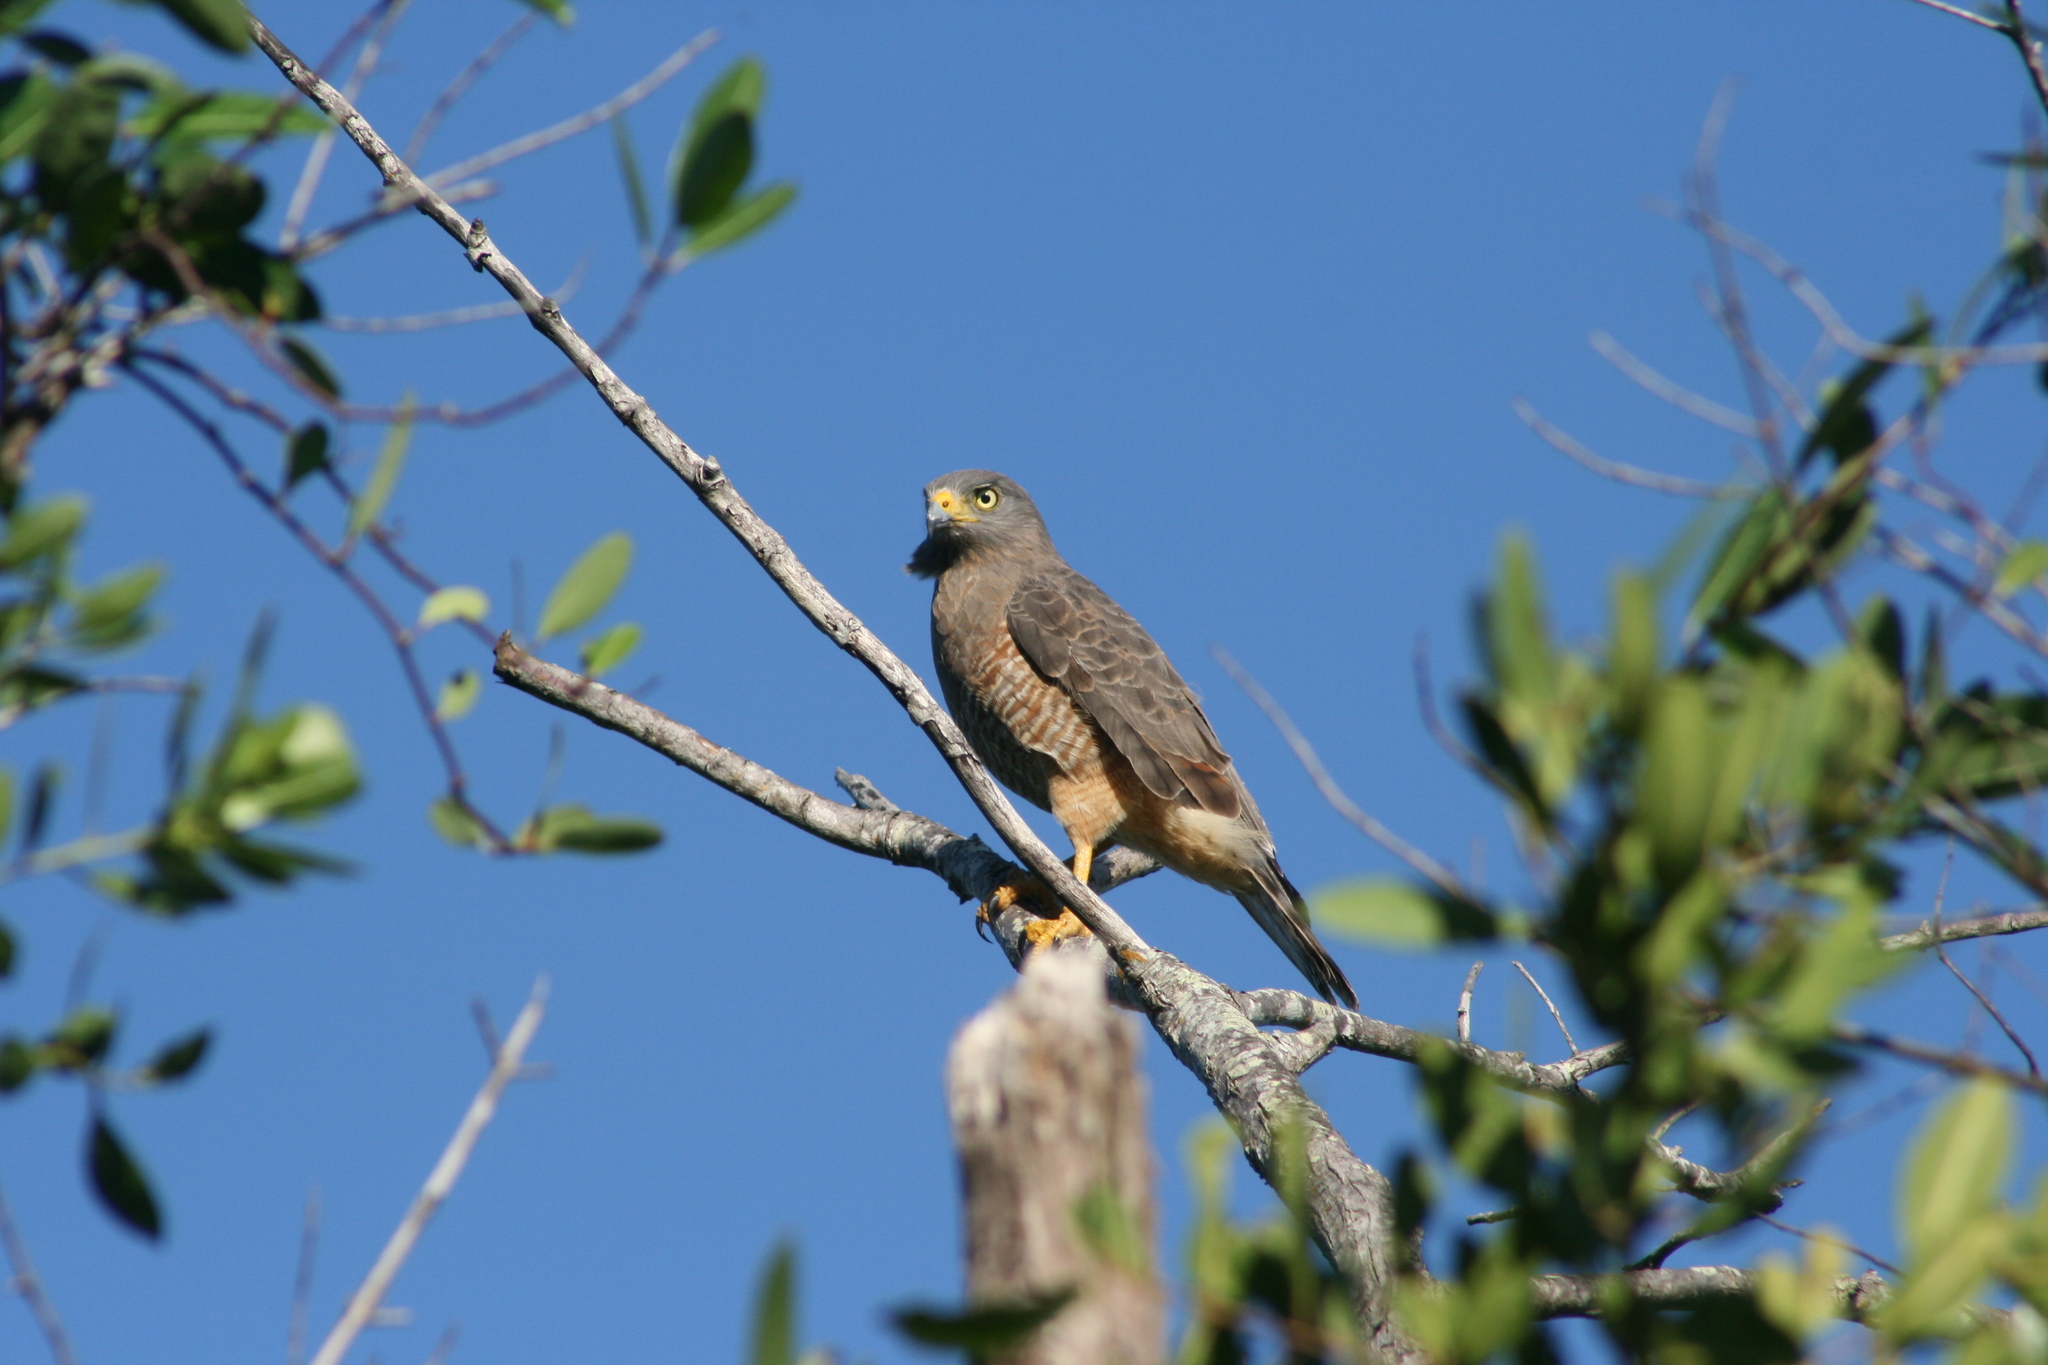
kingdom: Animalia
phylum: Chordata
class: Aves
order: Accipitriformes
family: Accipitridae
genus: Rupornis
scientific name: Rupornis magnirostris
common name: Roadside hawk
